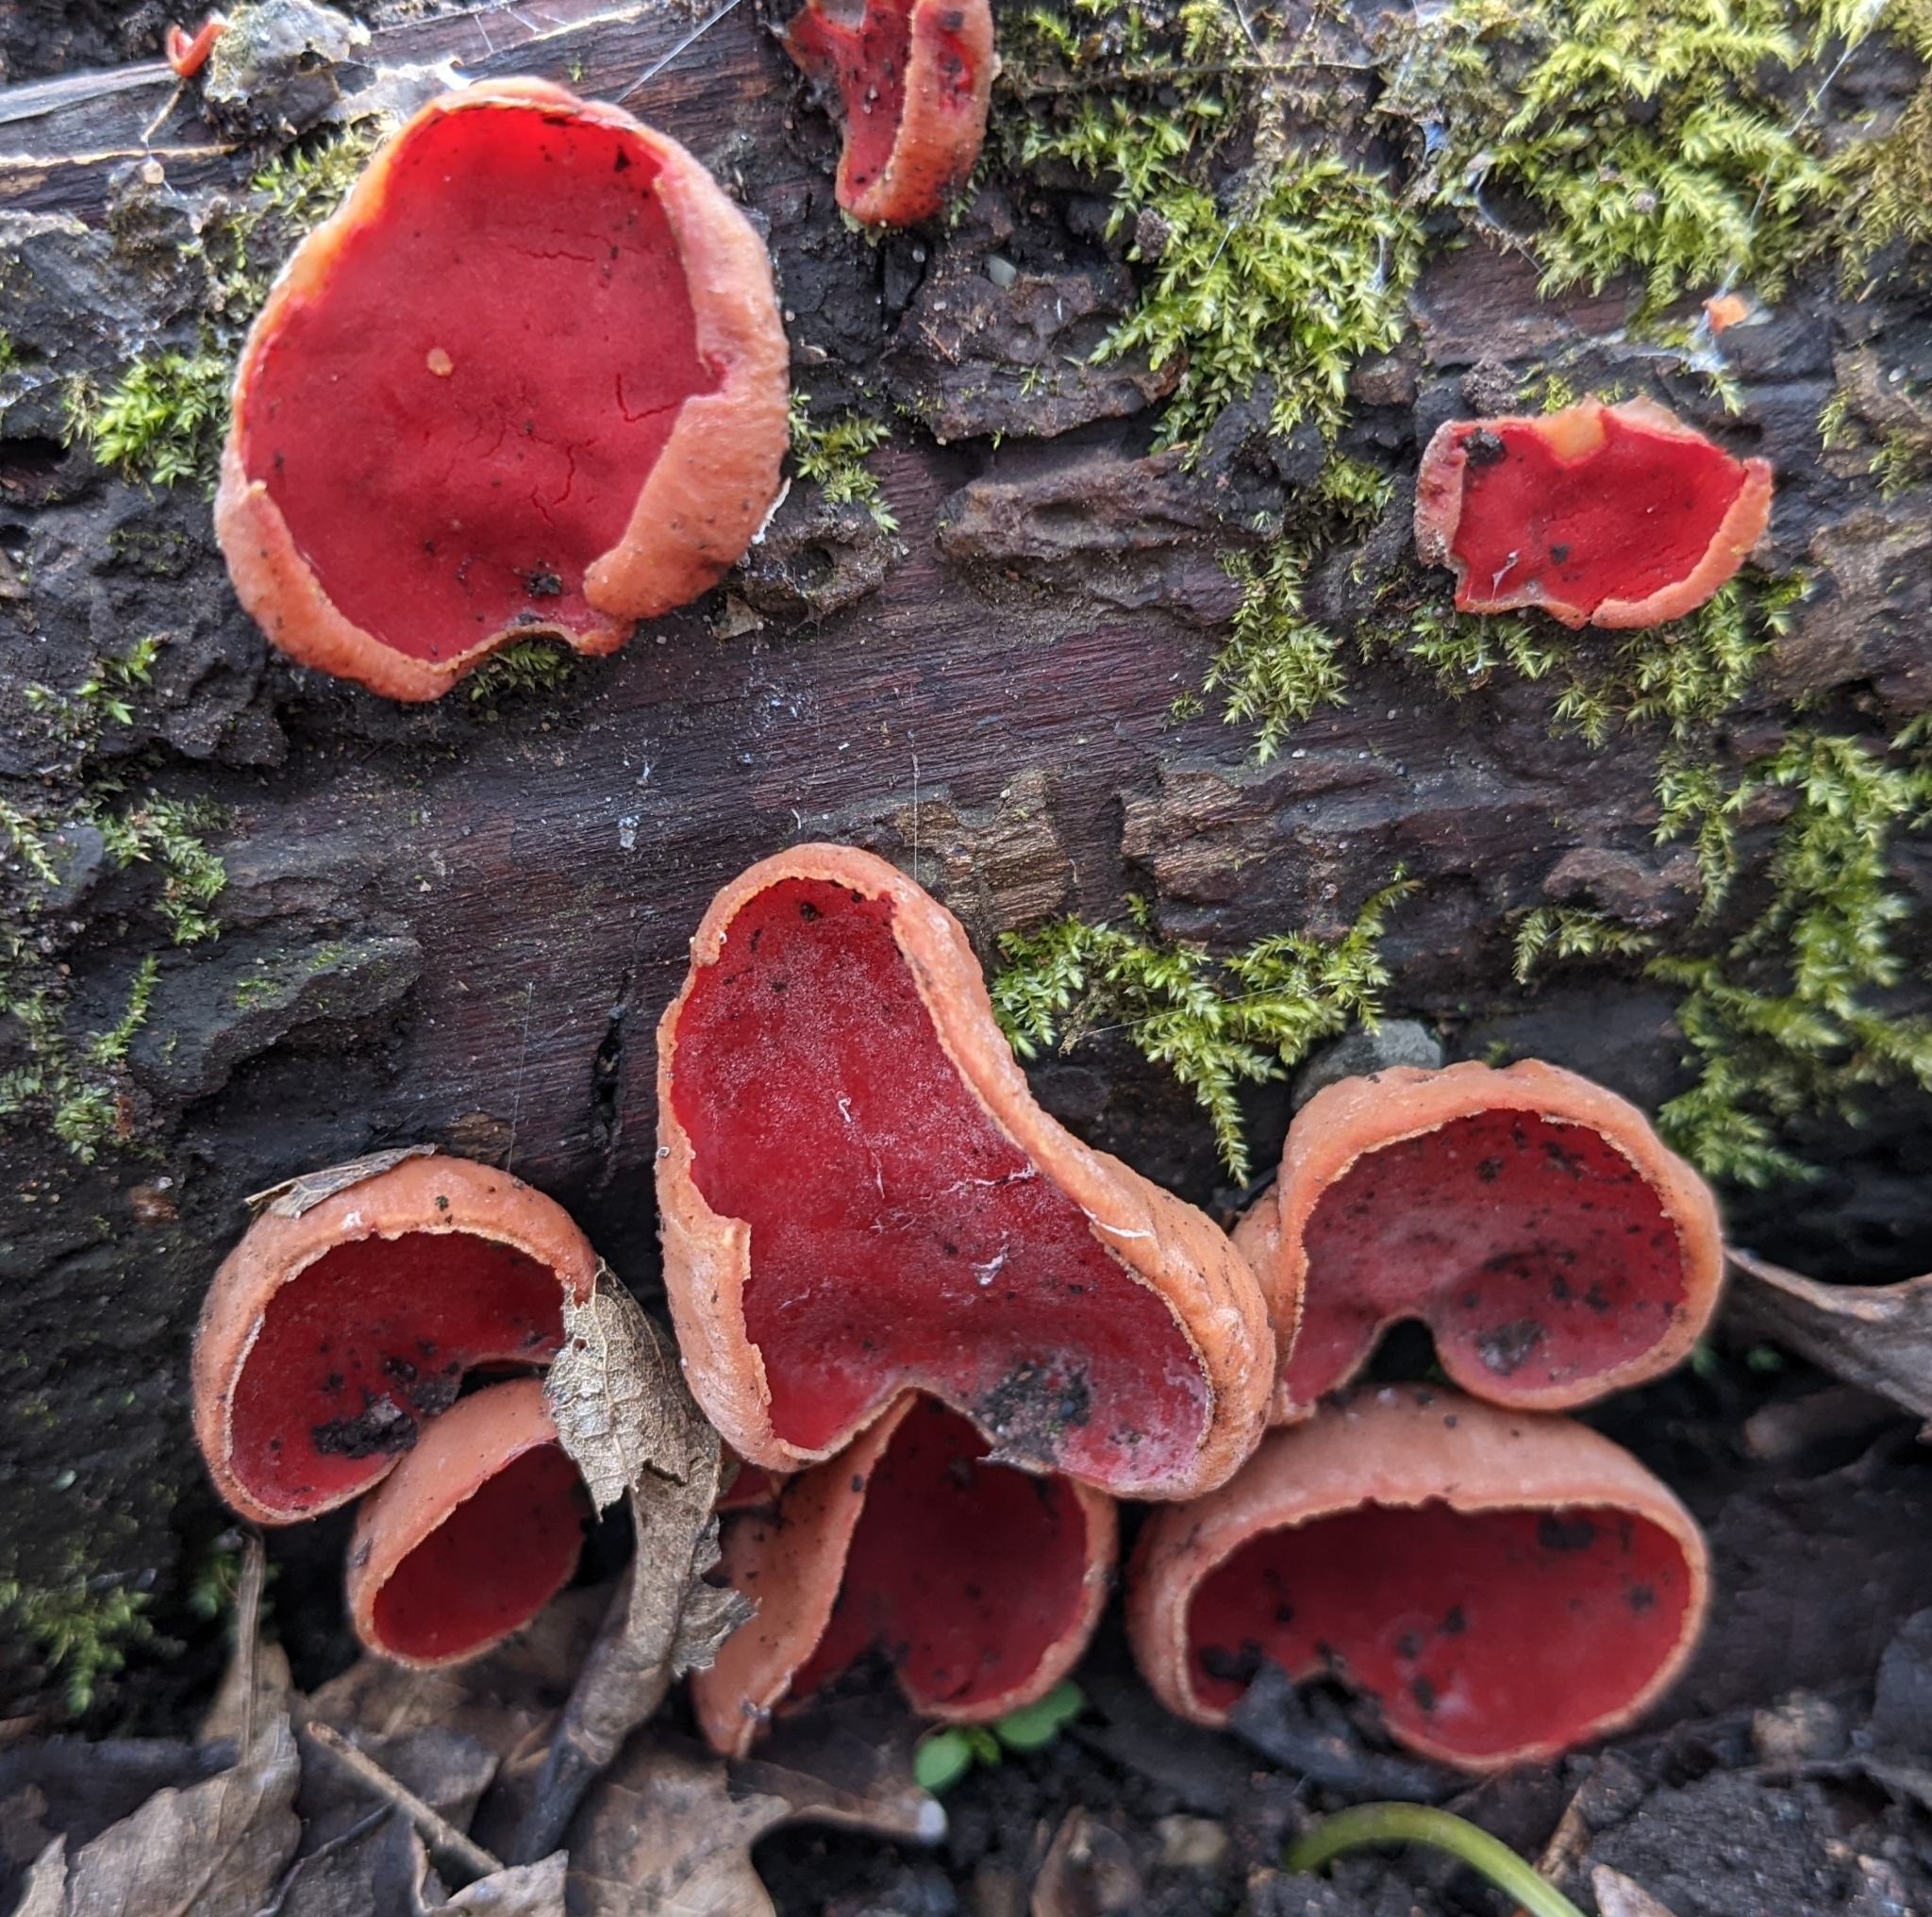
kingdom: Fungi
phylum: Ascomycota
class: Pezizomycetes
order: Pezizales
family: Sarcoscyphaceae
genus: Sarcoscypha
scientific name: Sarcoscypha
